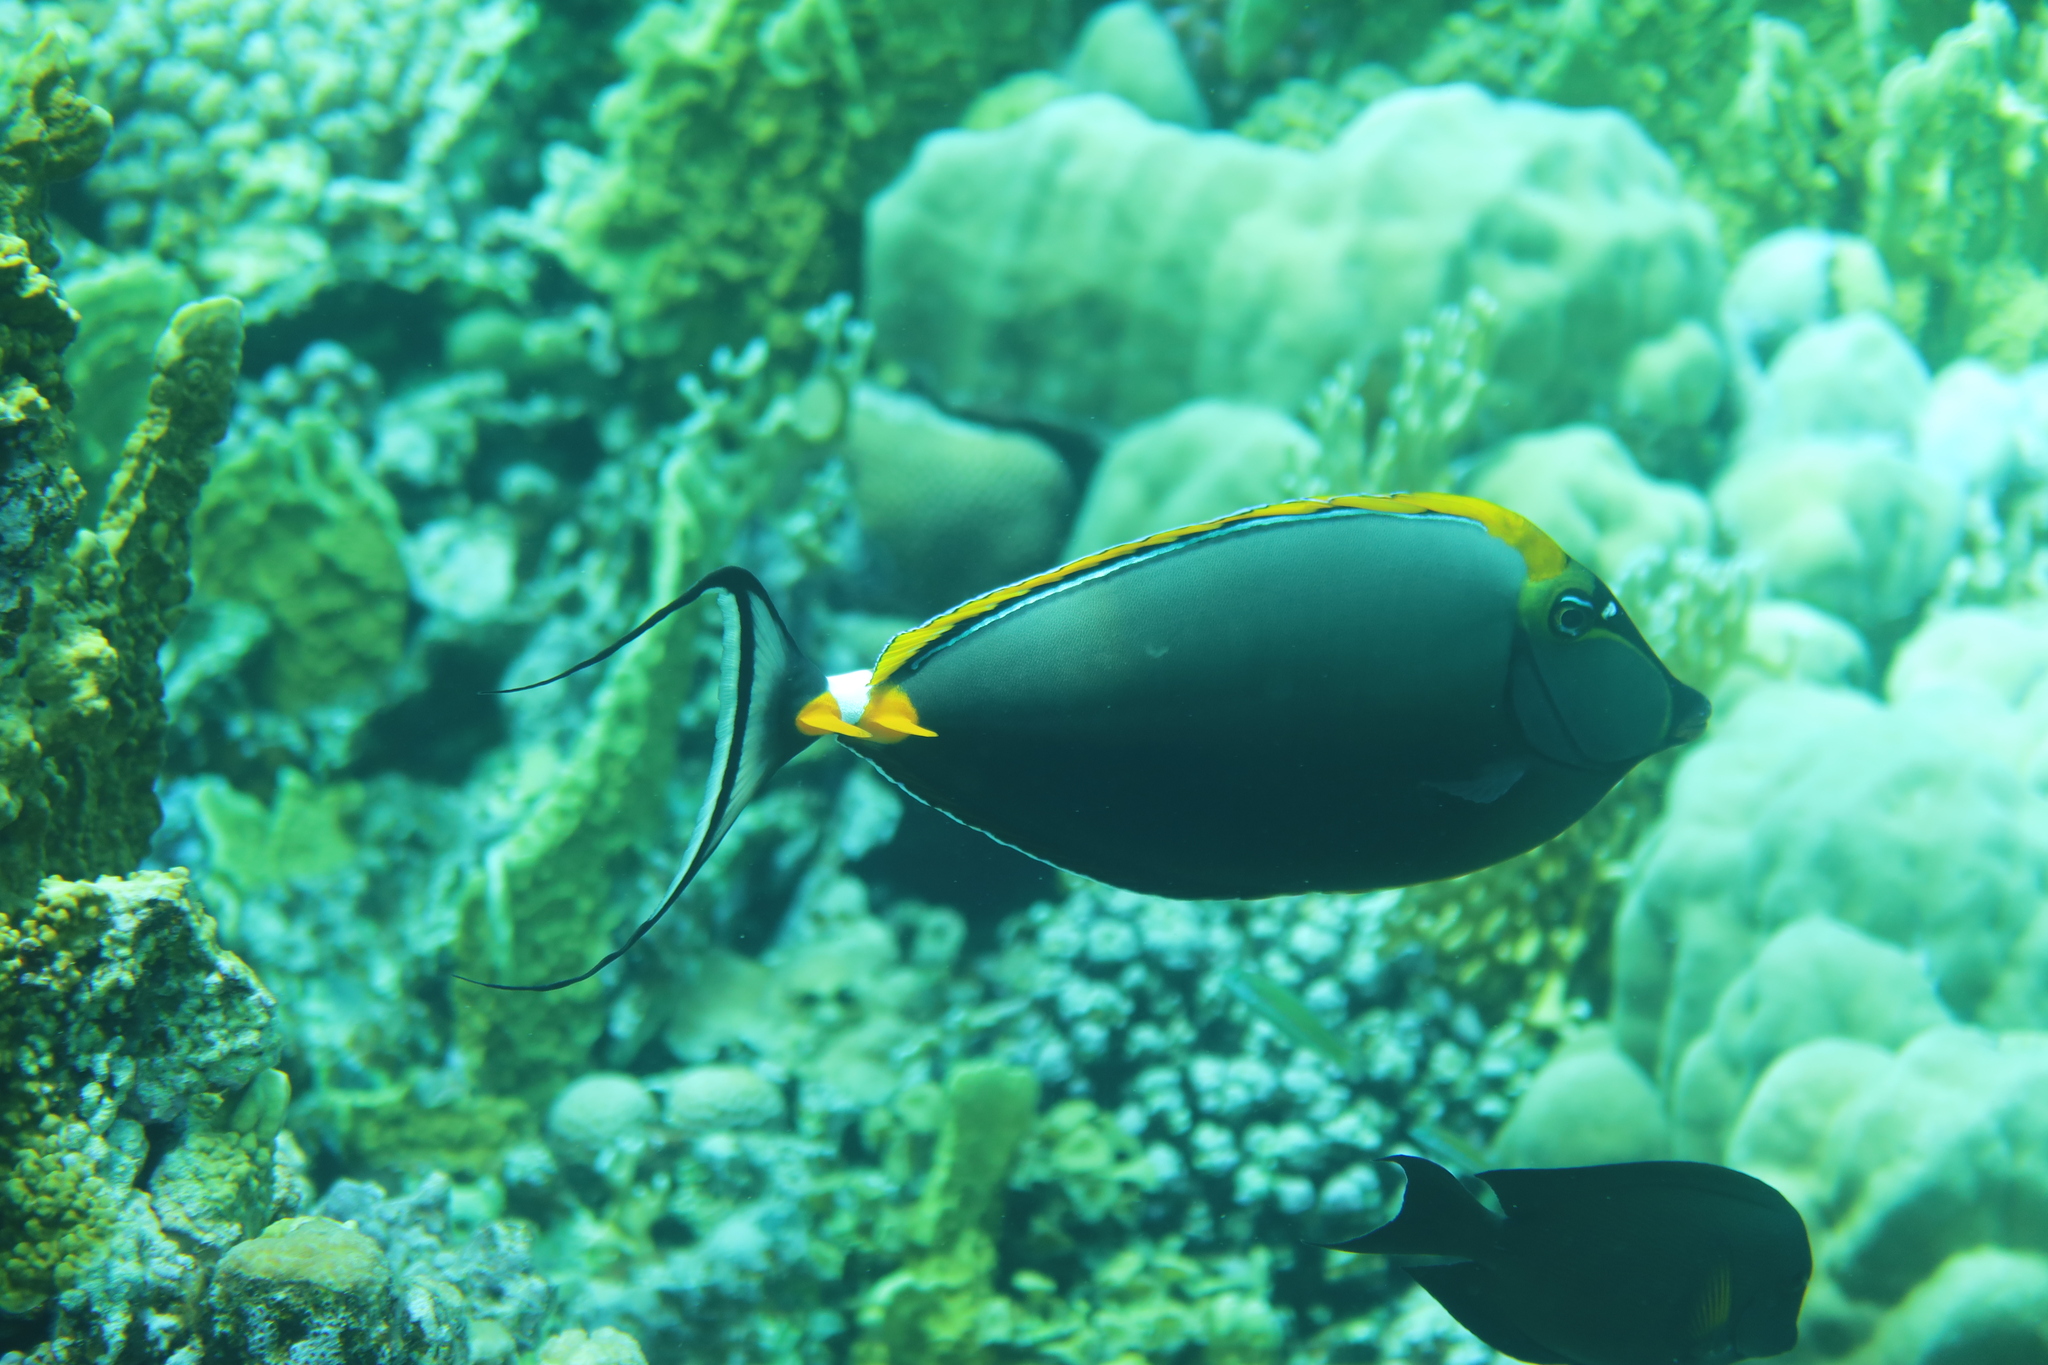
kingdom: Animalia
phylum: Chordata
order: Perciformes
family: Acanthuridae
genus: Naso
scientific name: Naso elegans
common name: Orangespine unicornfish
